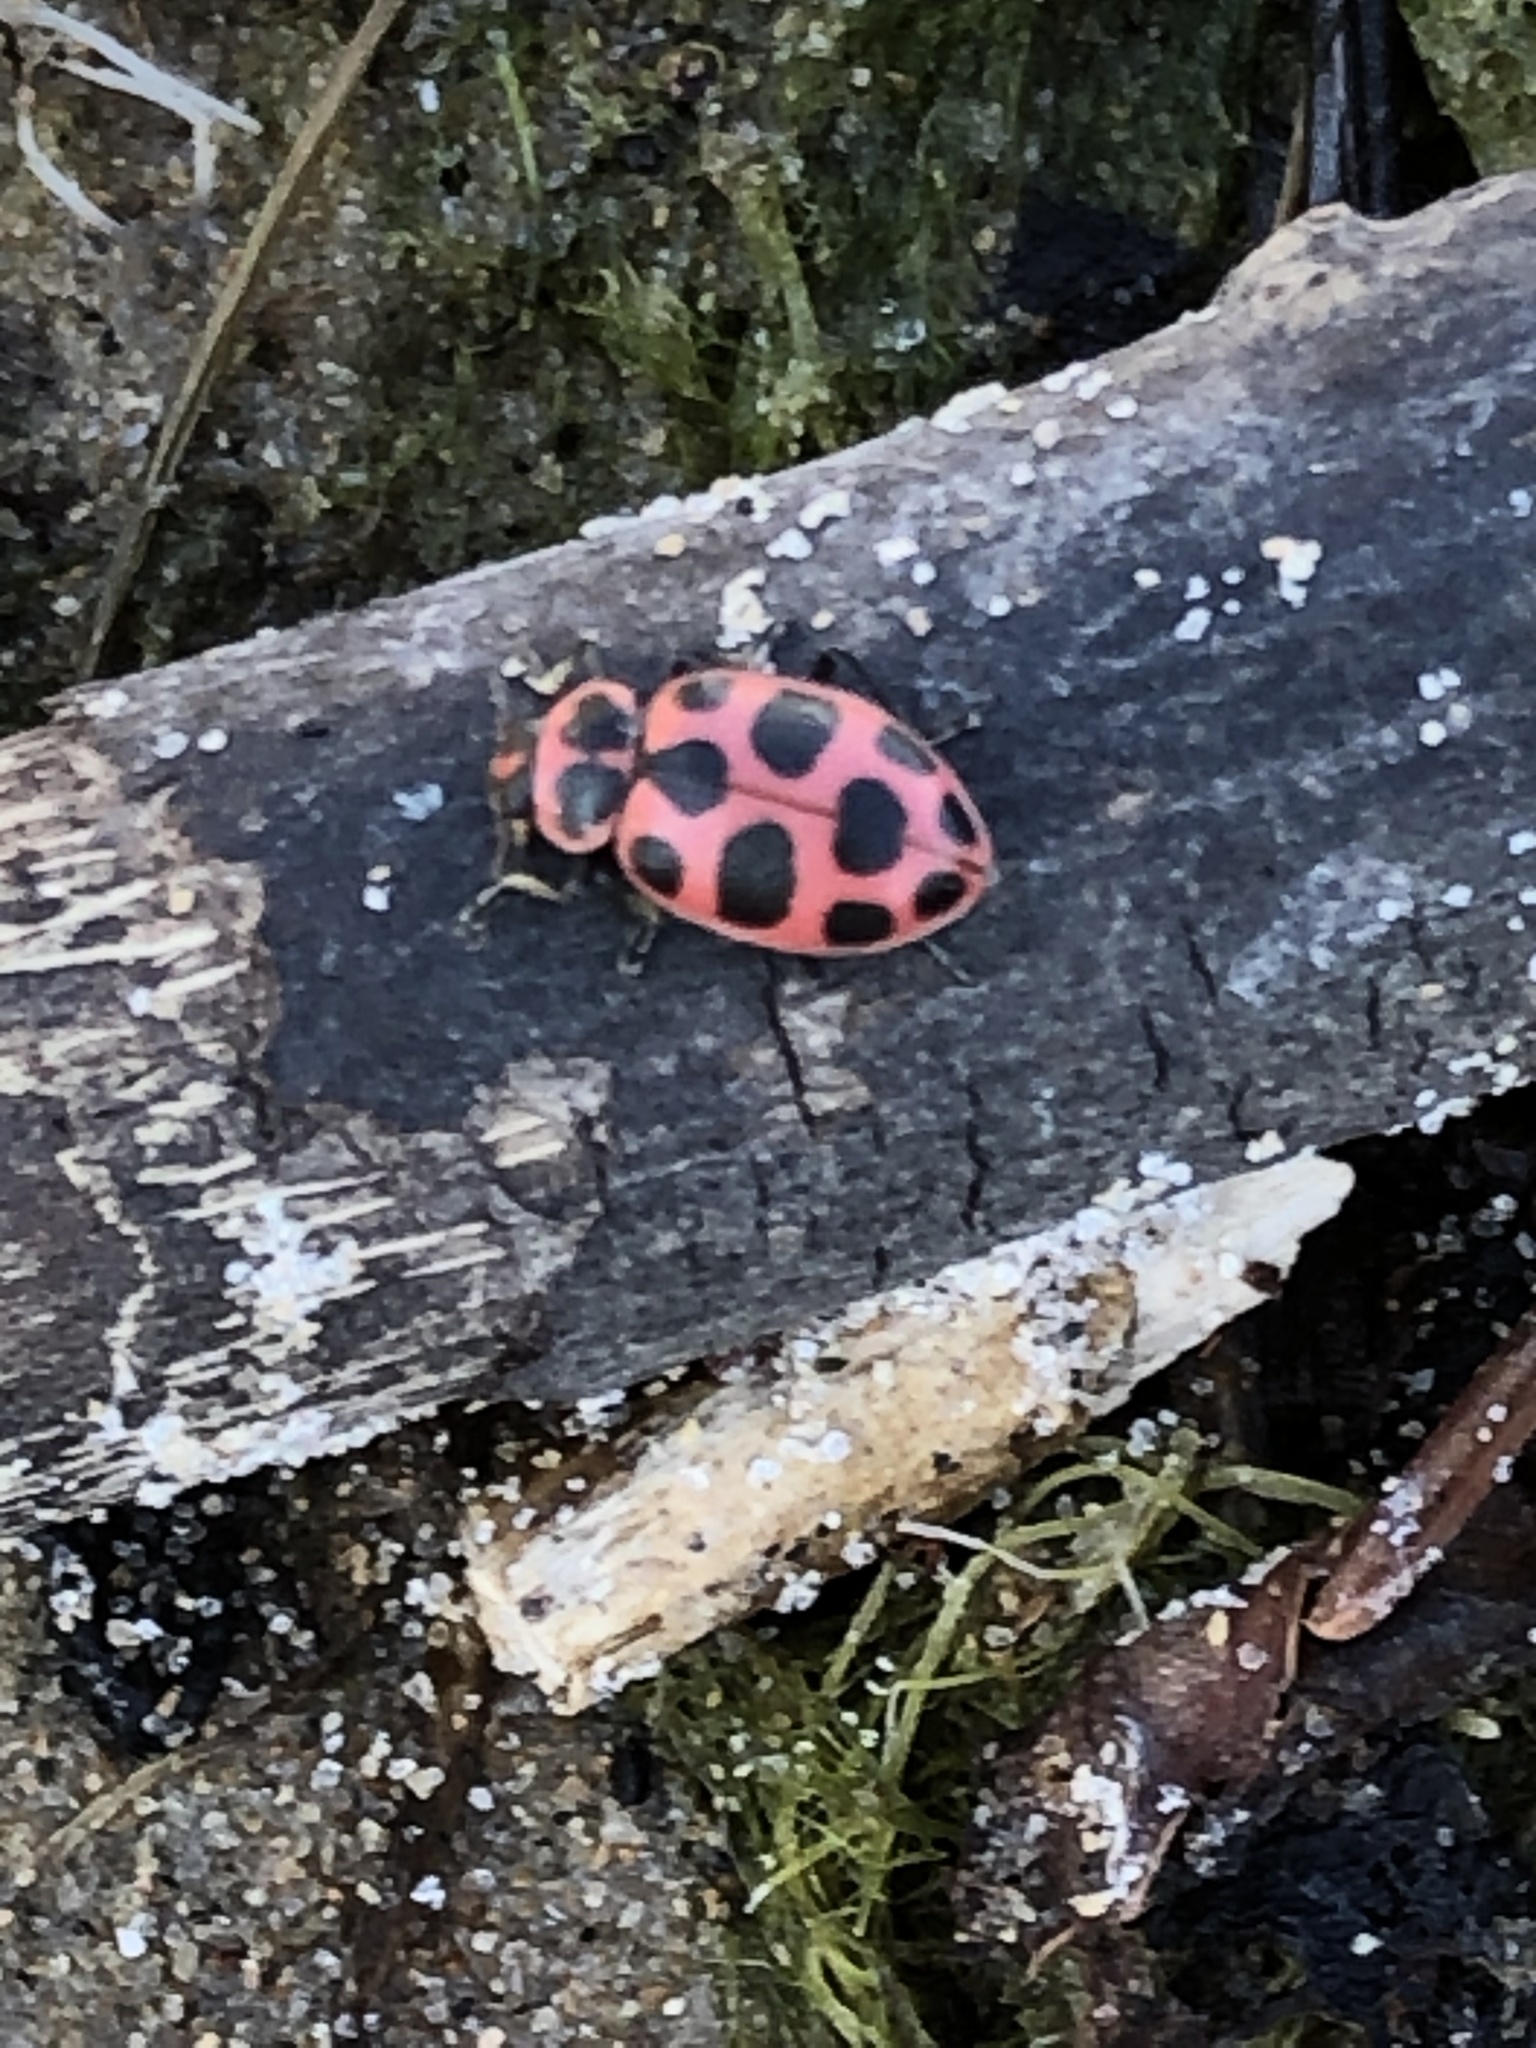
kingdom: Animalia
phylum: Arthropoda
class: Insecta
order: Coleoptera
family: Coccinellidae
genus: Coleomegilla
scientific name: Coleomegilla maculata
